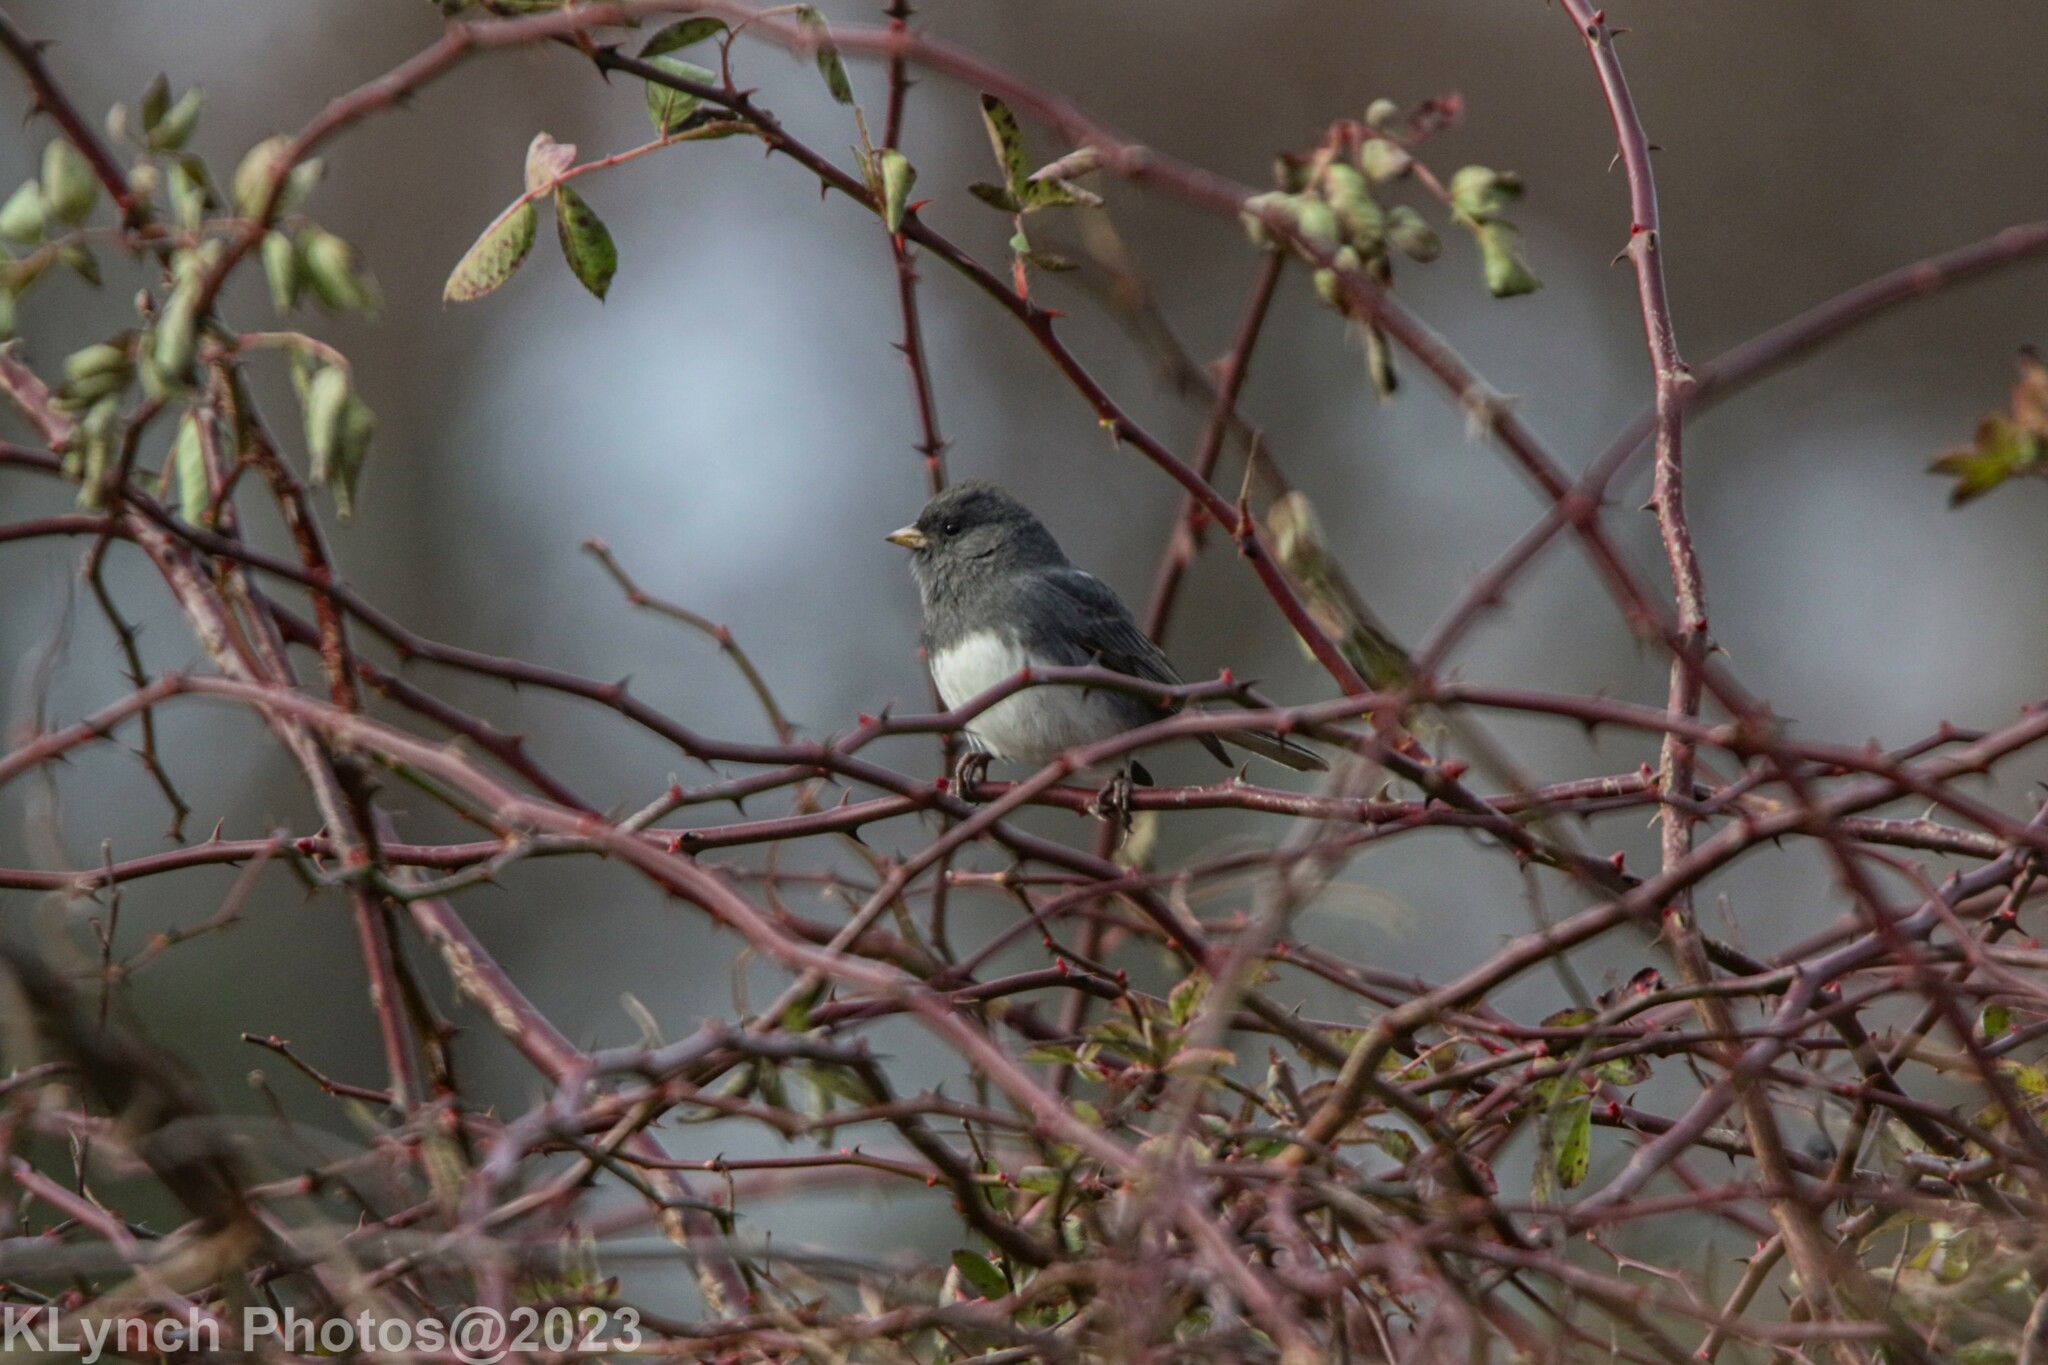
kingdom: Animalia
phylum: Chordata
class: Aves
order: Passeriformes
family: Passerellidae
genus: Junco
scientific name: Junco hyemalis
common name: Dark-eyed junco
